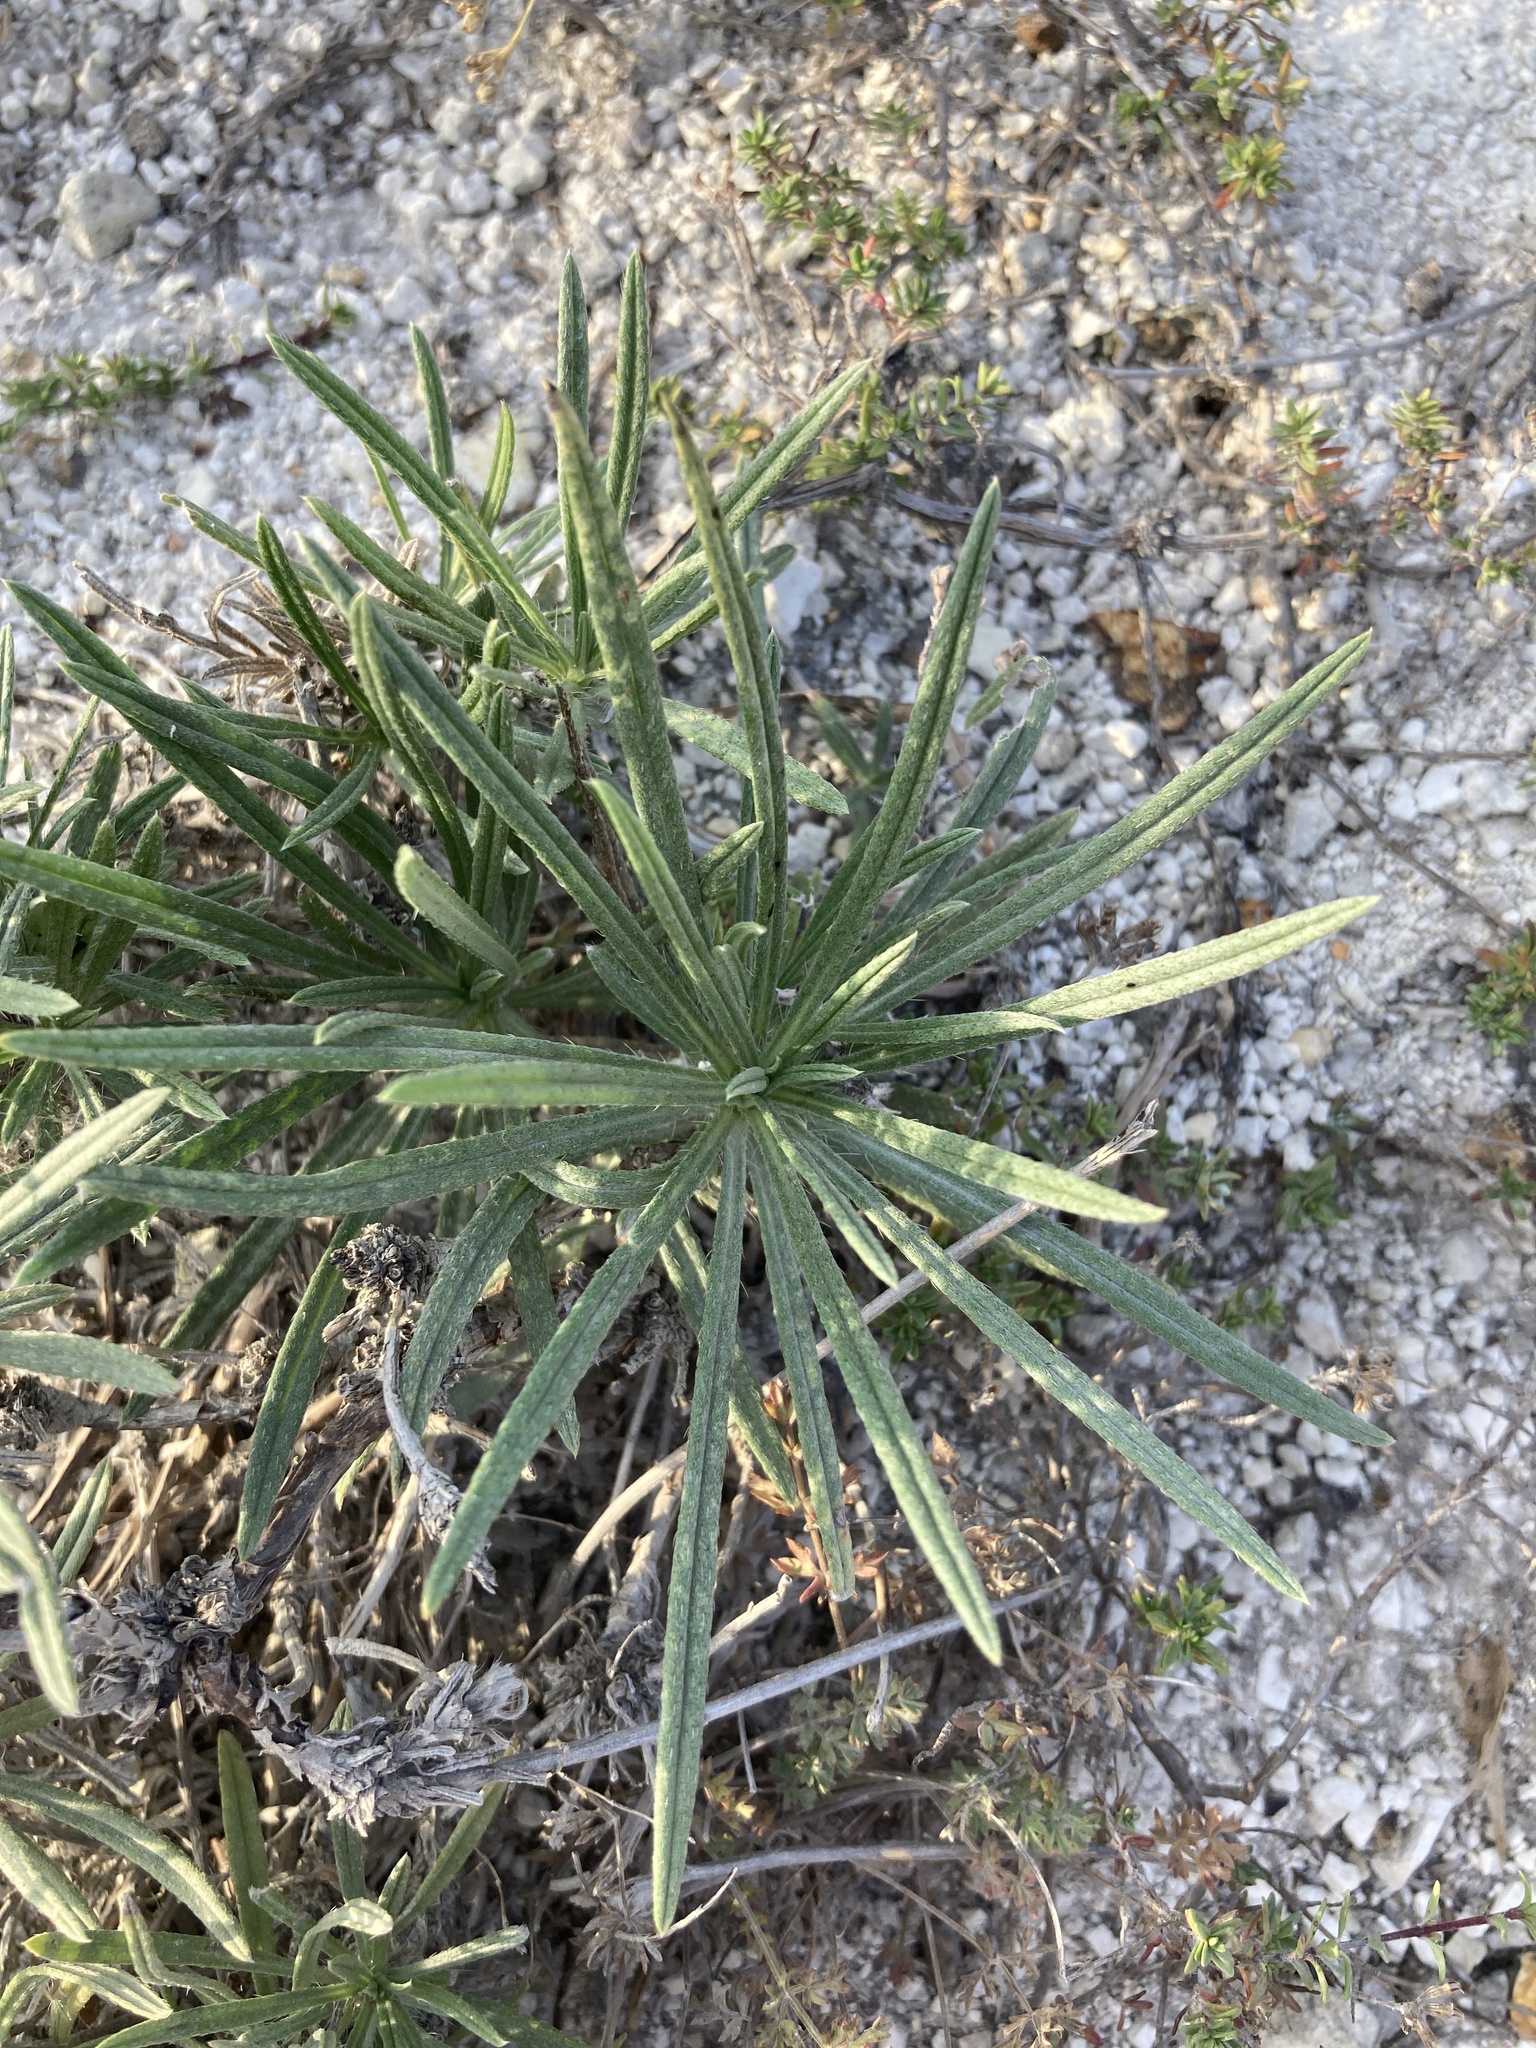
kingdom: Plantae
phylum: Tracheophyta
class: Magnoliopsida
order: Boraginales
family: Boraginaceae
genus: Onosma
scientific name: Onosma simplicissima
